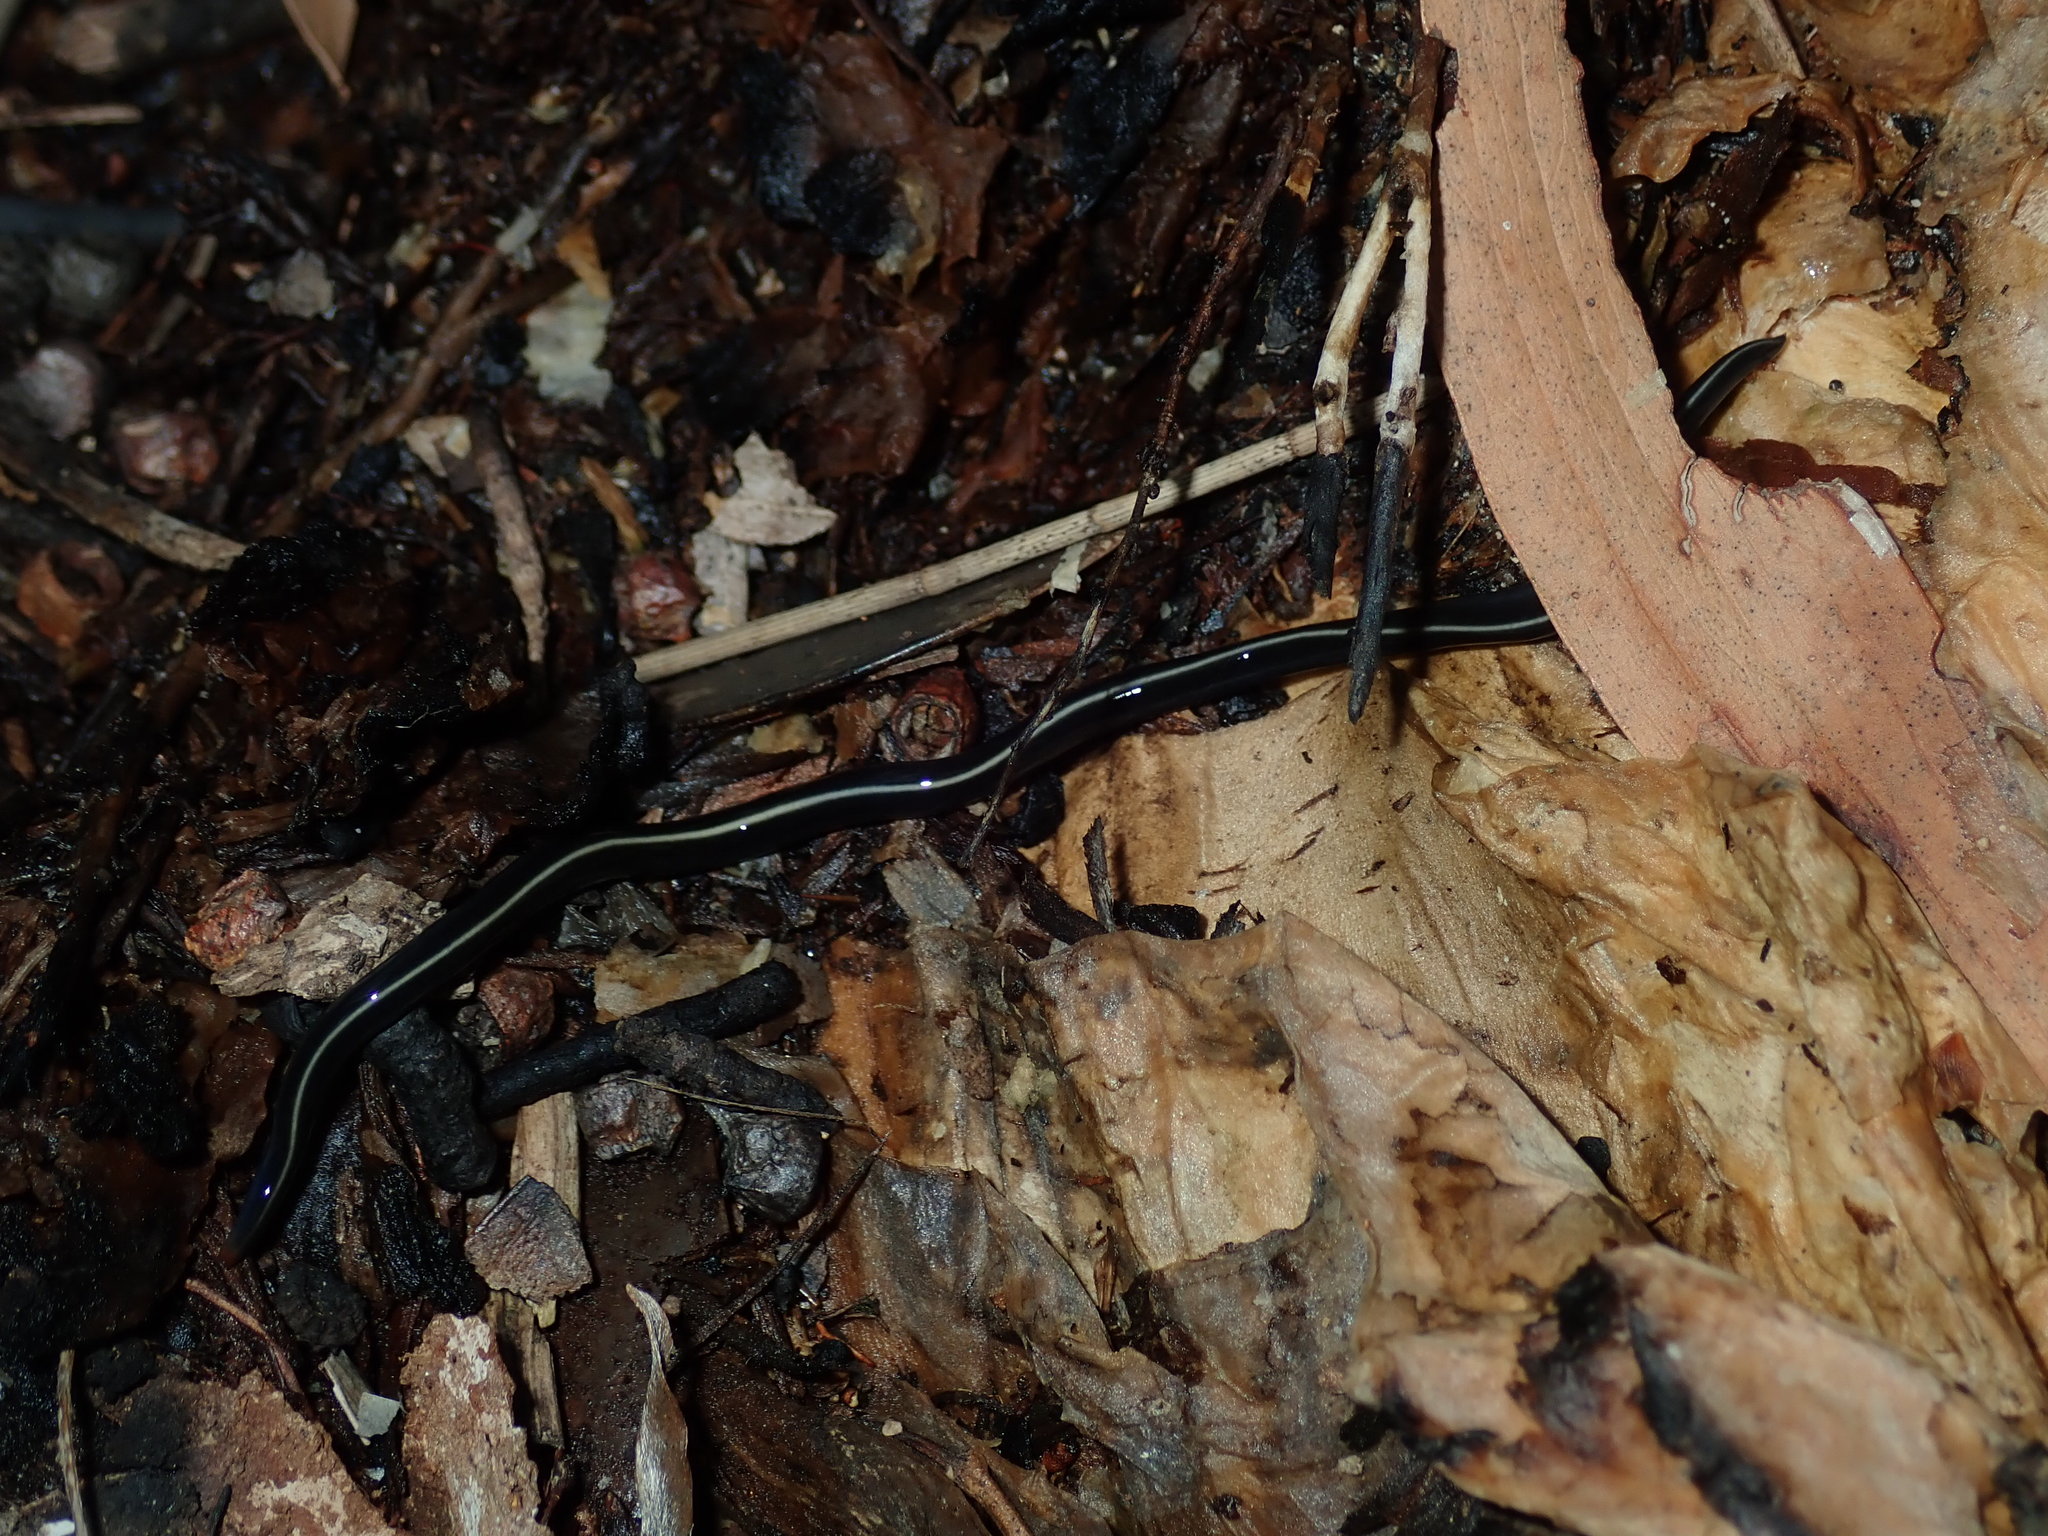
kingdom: Animalia
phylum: Platyhelminthes
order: Tricladida
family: Geoplanidae
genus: Caenoplana
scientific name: Caenoplana coerulea
